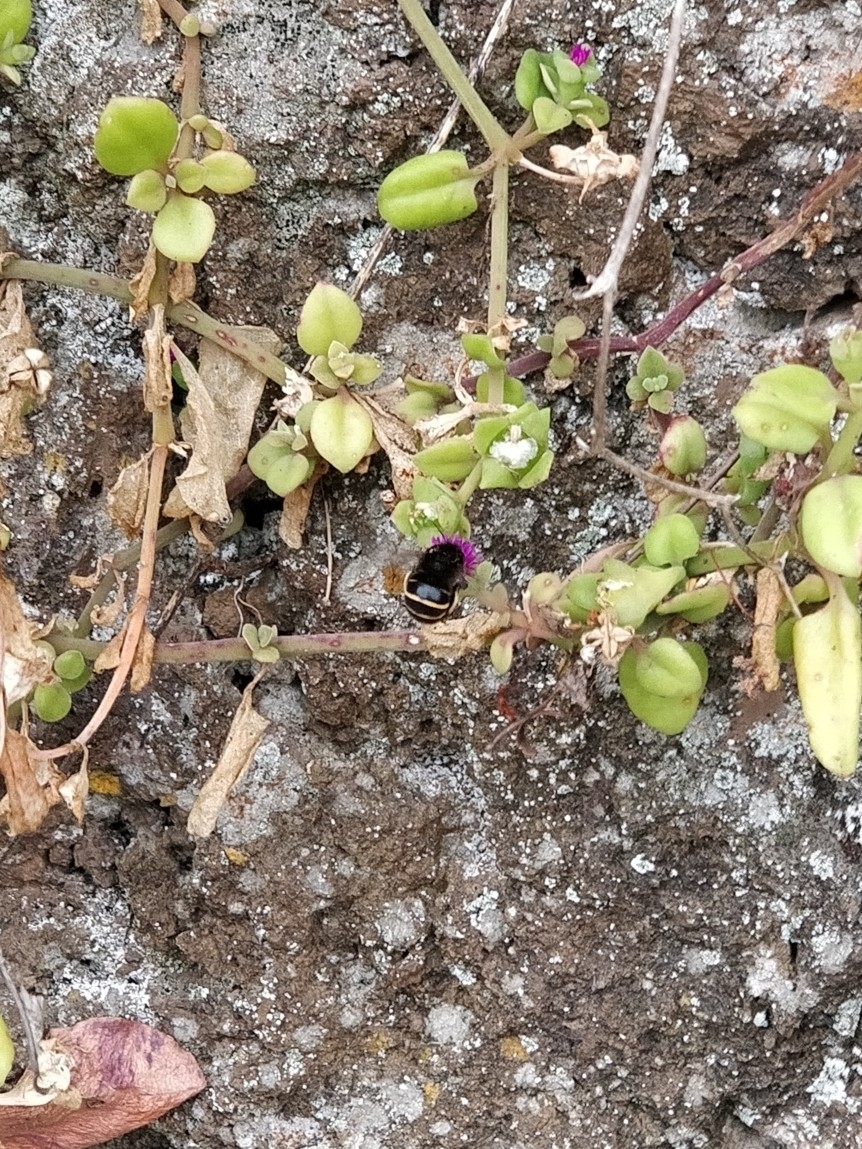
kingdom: Animalia
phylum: Arthropoda
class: Insecta
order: Hymenoptera
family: Apidae
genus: Amegilla
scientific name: Amegilla quadrifasciata
